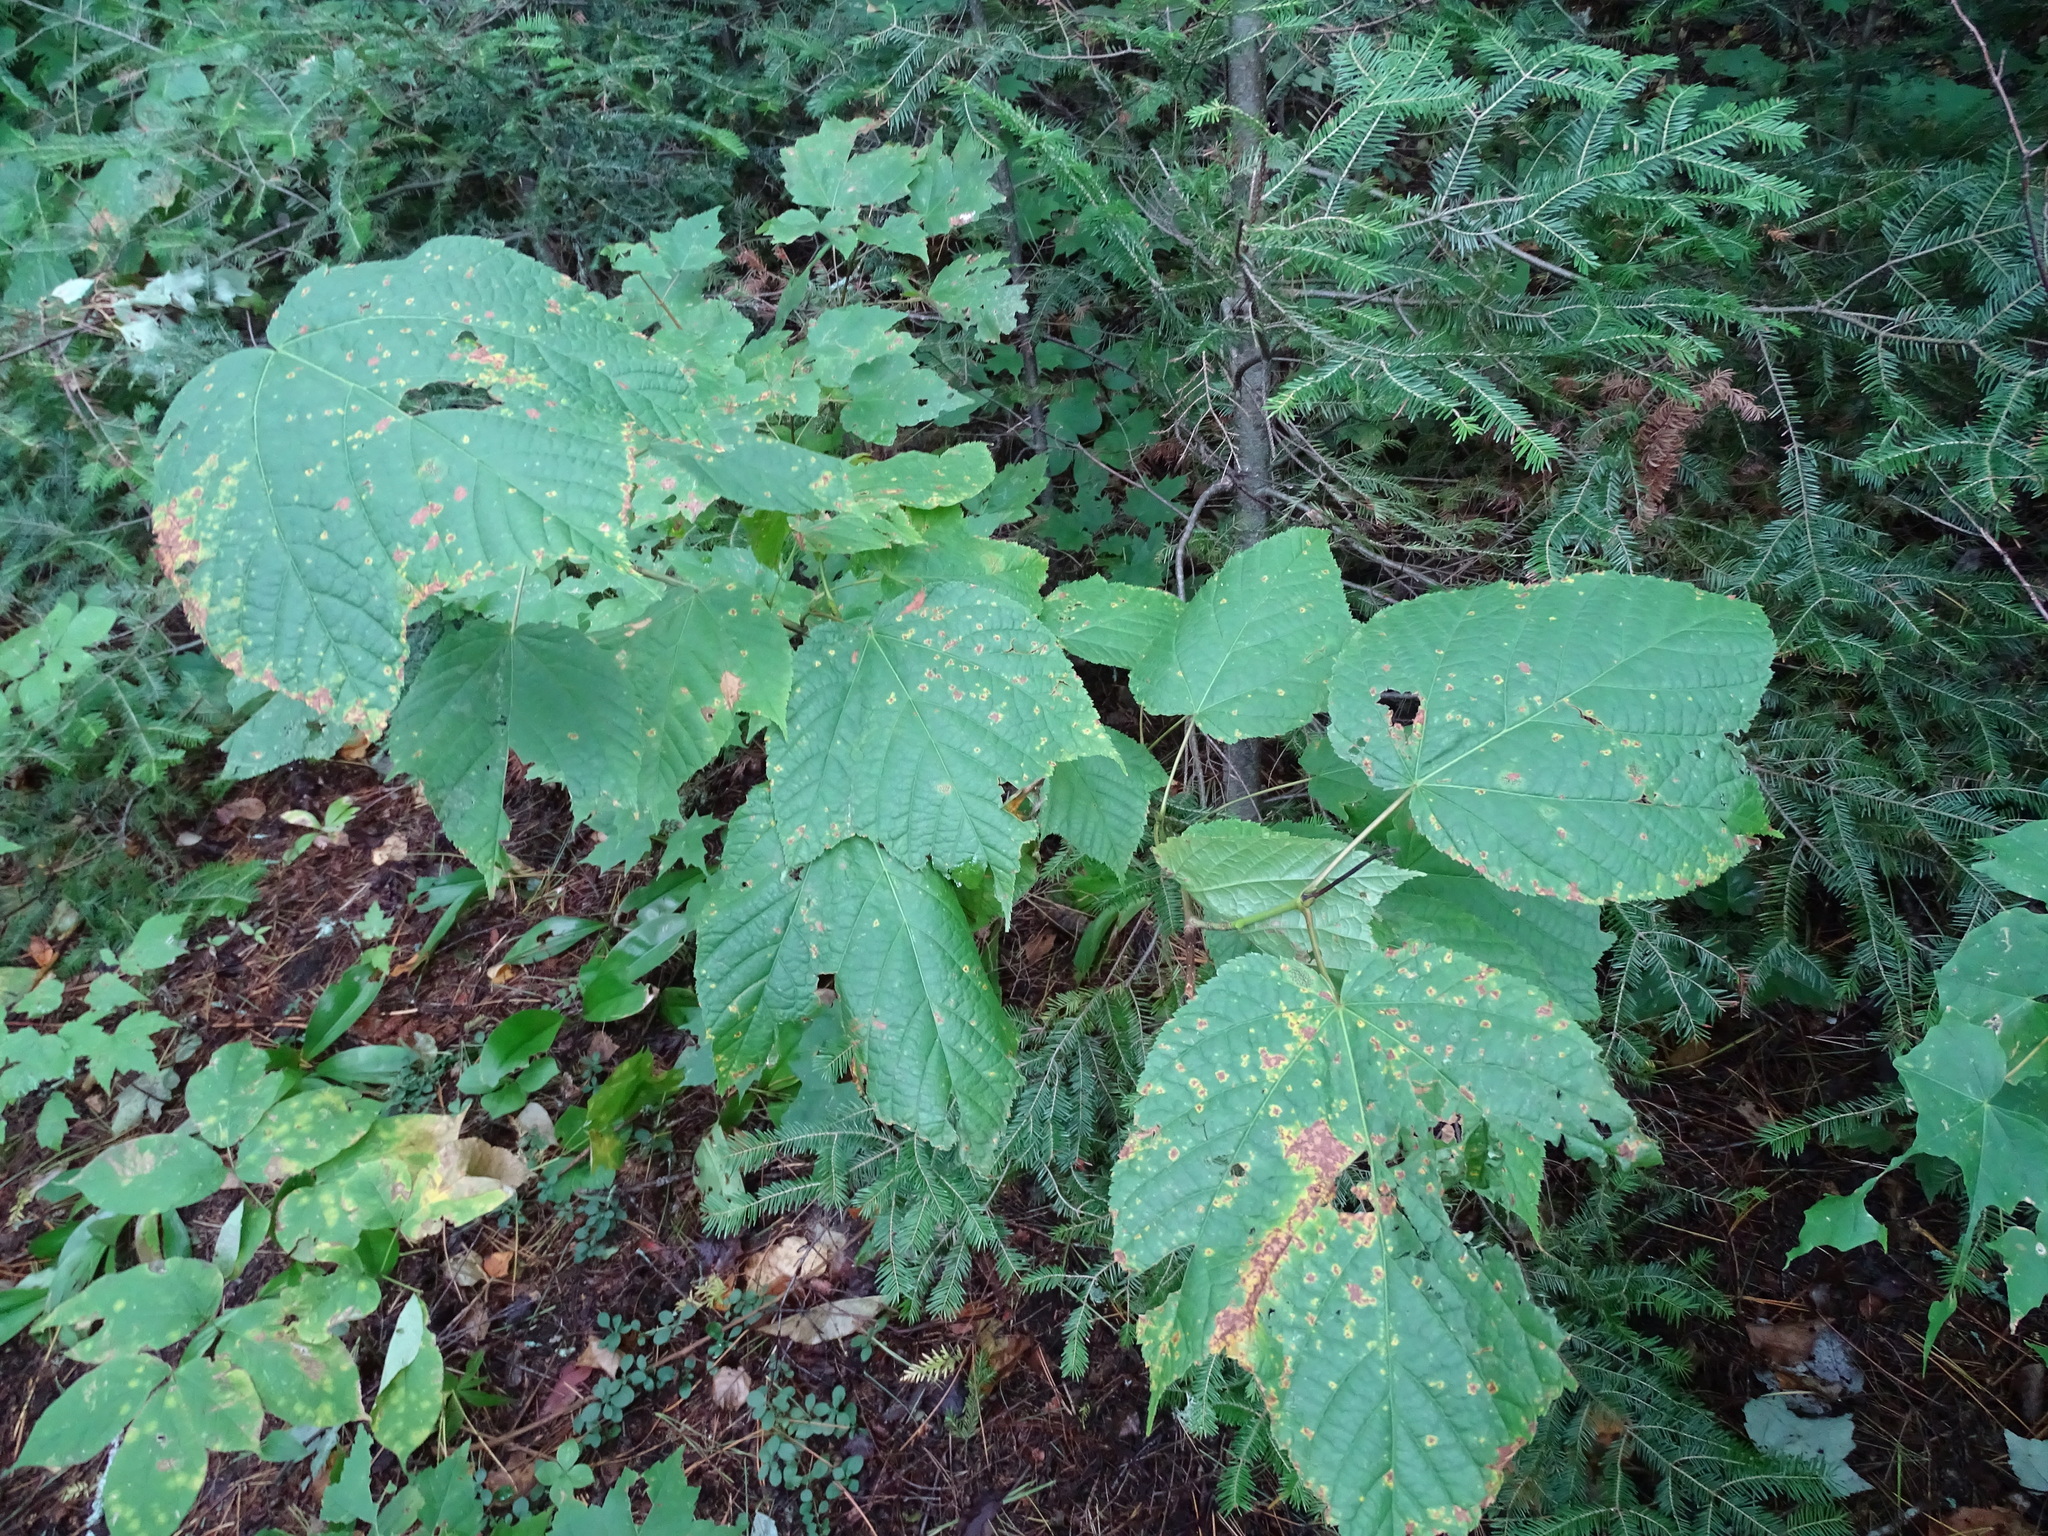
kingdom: Plantae
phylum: Tracheophyta
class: Magnoliopsida
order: Sapindales
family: Sapindaceae
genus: Acer
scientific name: Acer pensylvanicum
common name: Moosewood
